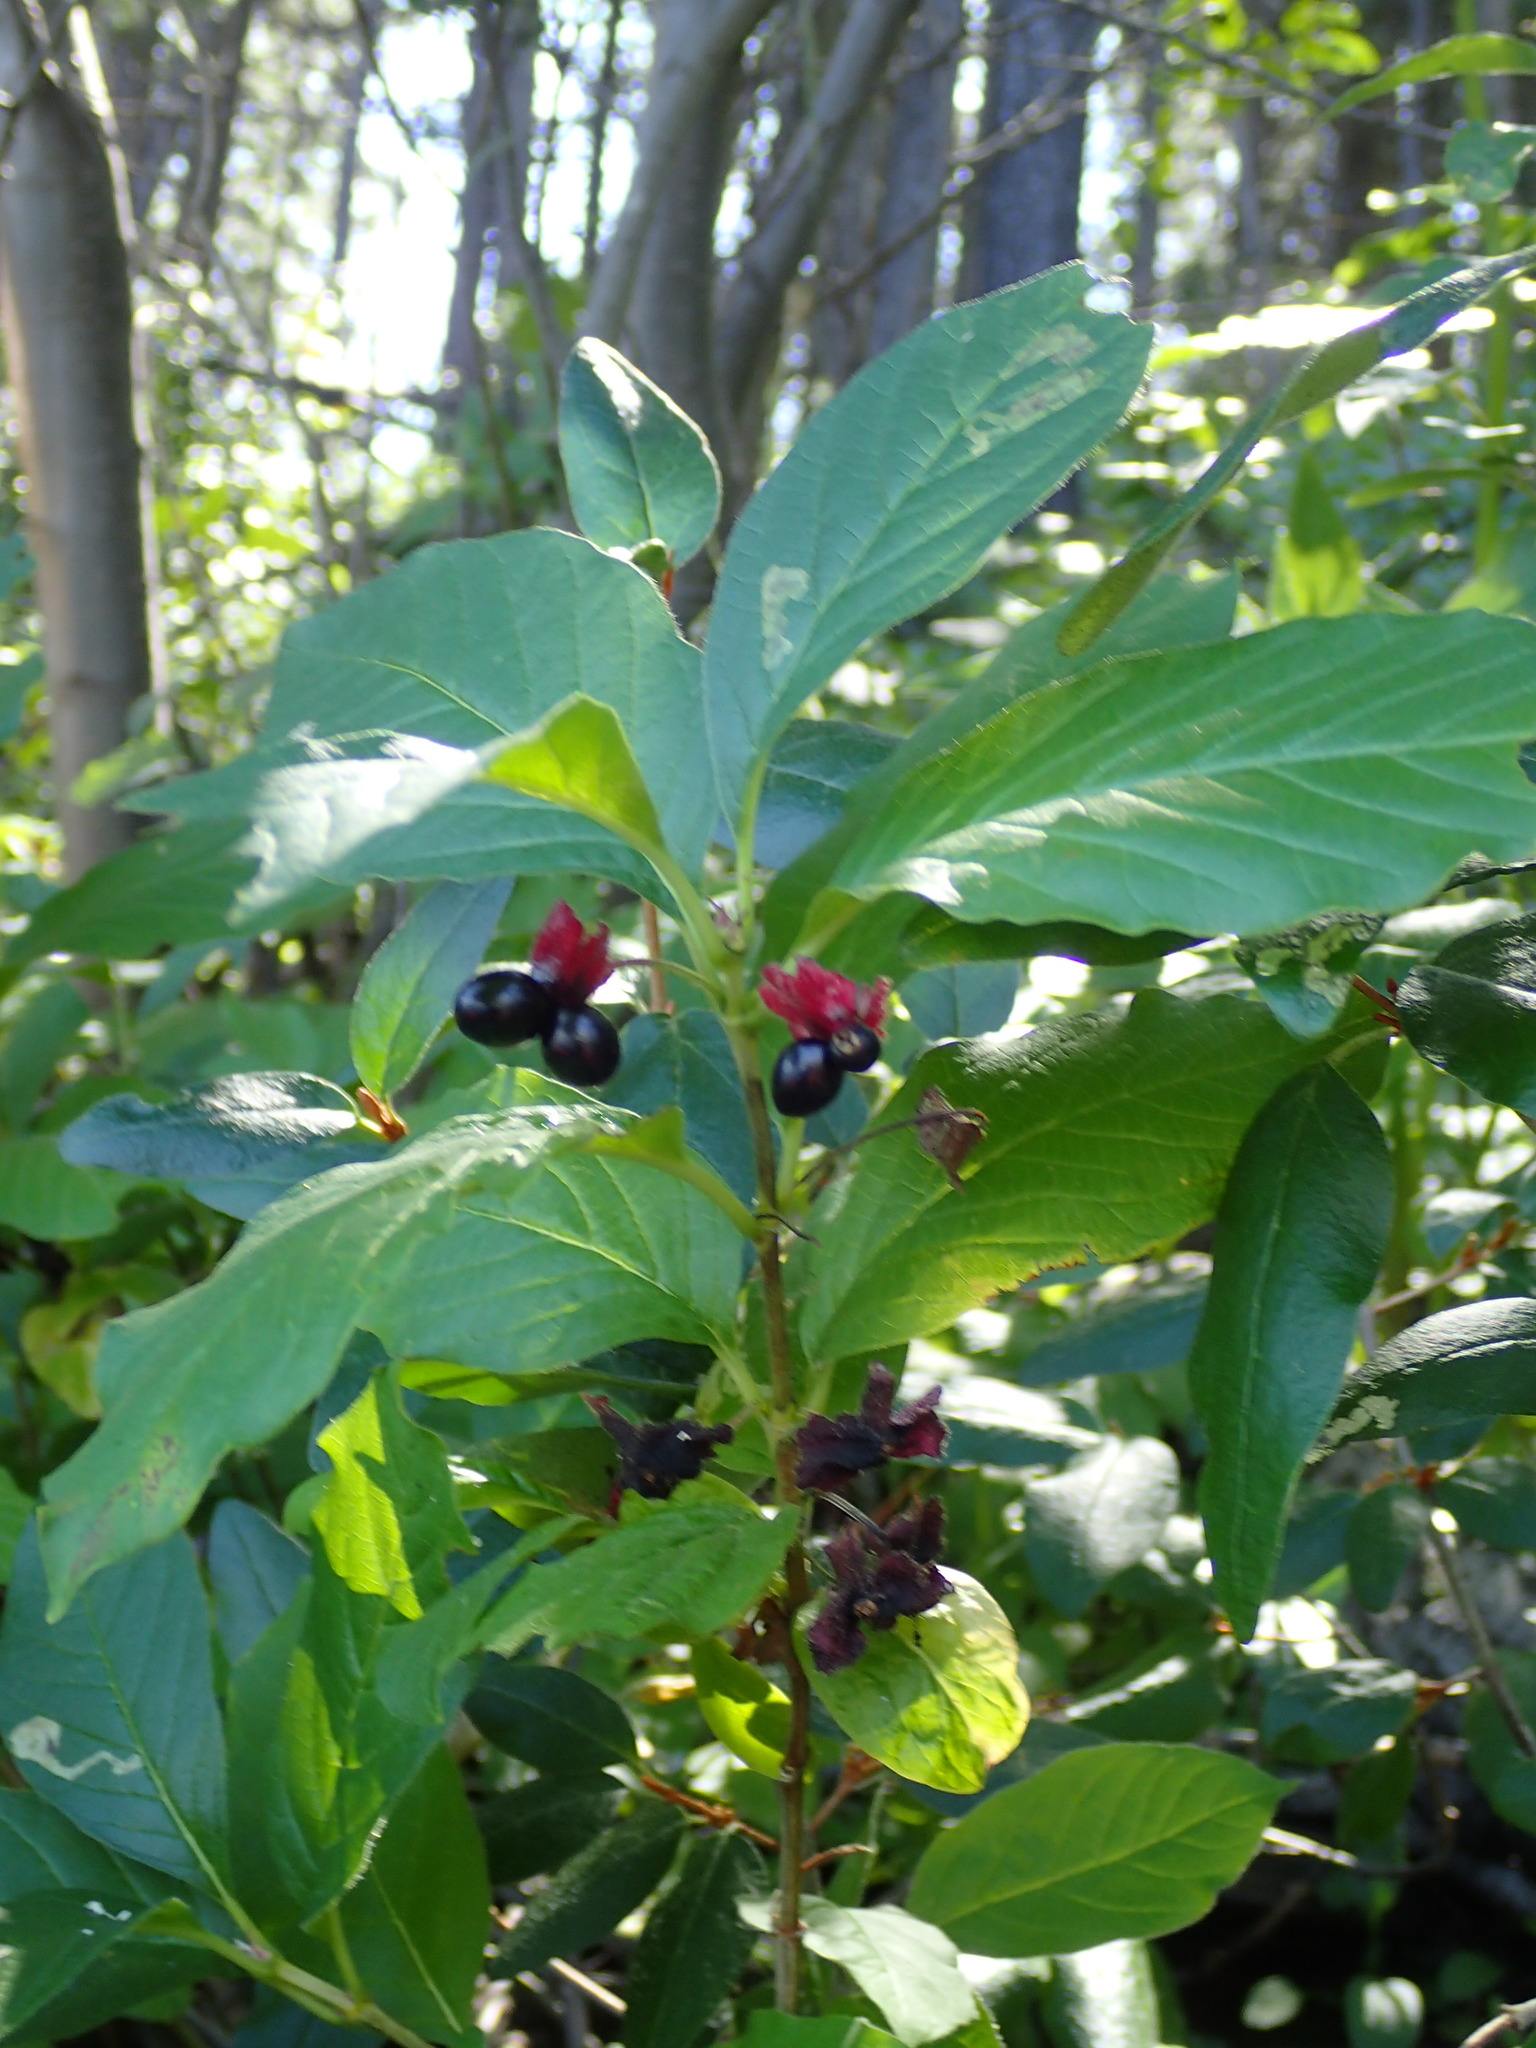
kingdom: Plantae
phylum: Tracheophyta
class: Magnoliopsida
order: Dipsacales
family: Caprifoliaceae
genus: Lonicera
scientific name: Lonicera involucrata
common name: Californian honeysuckle
